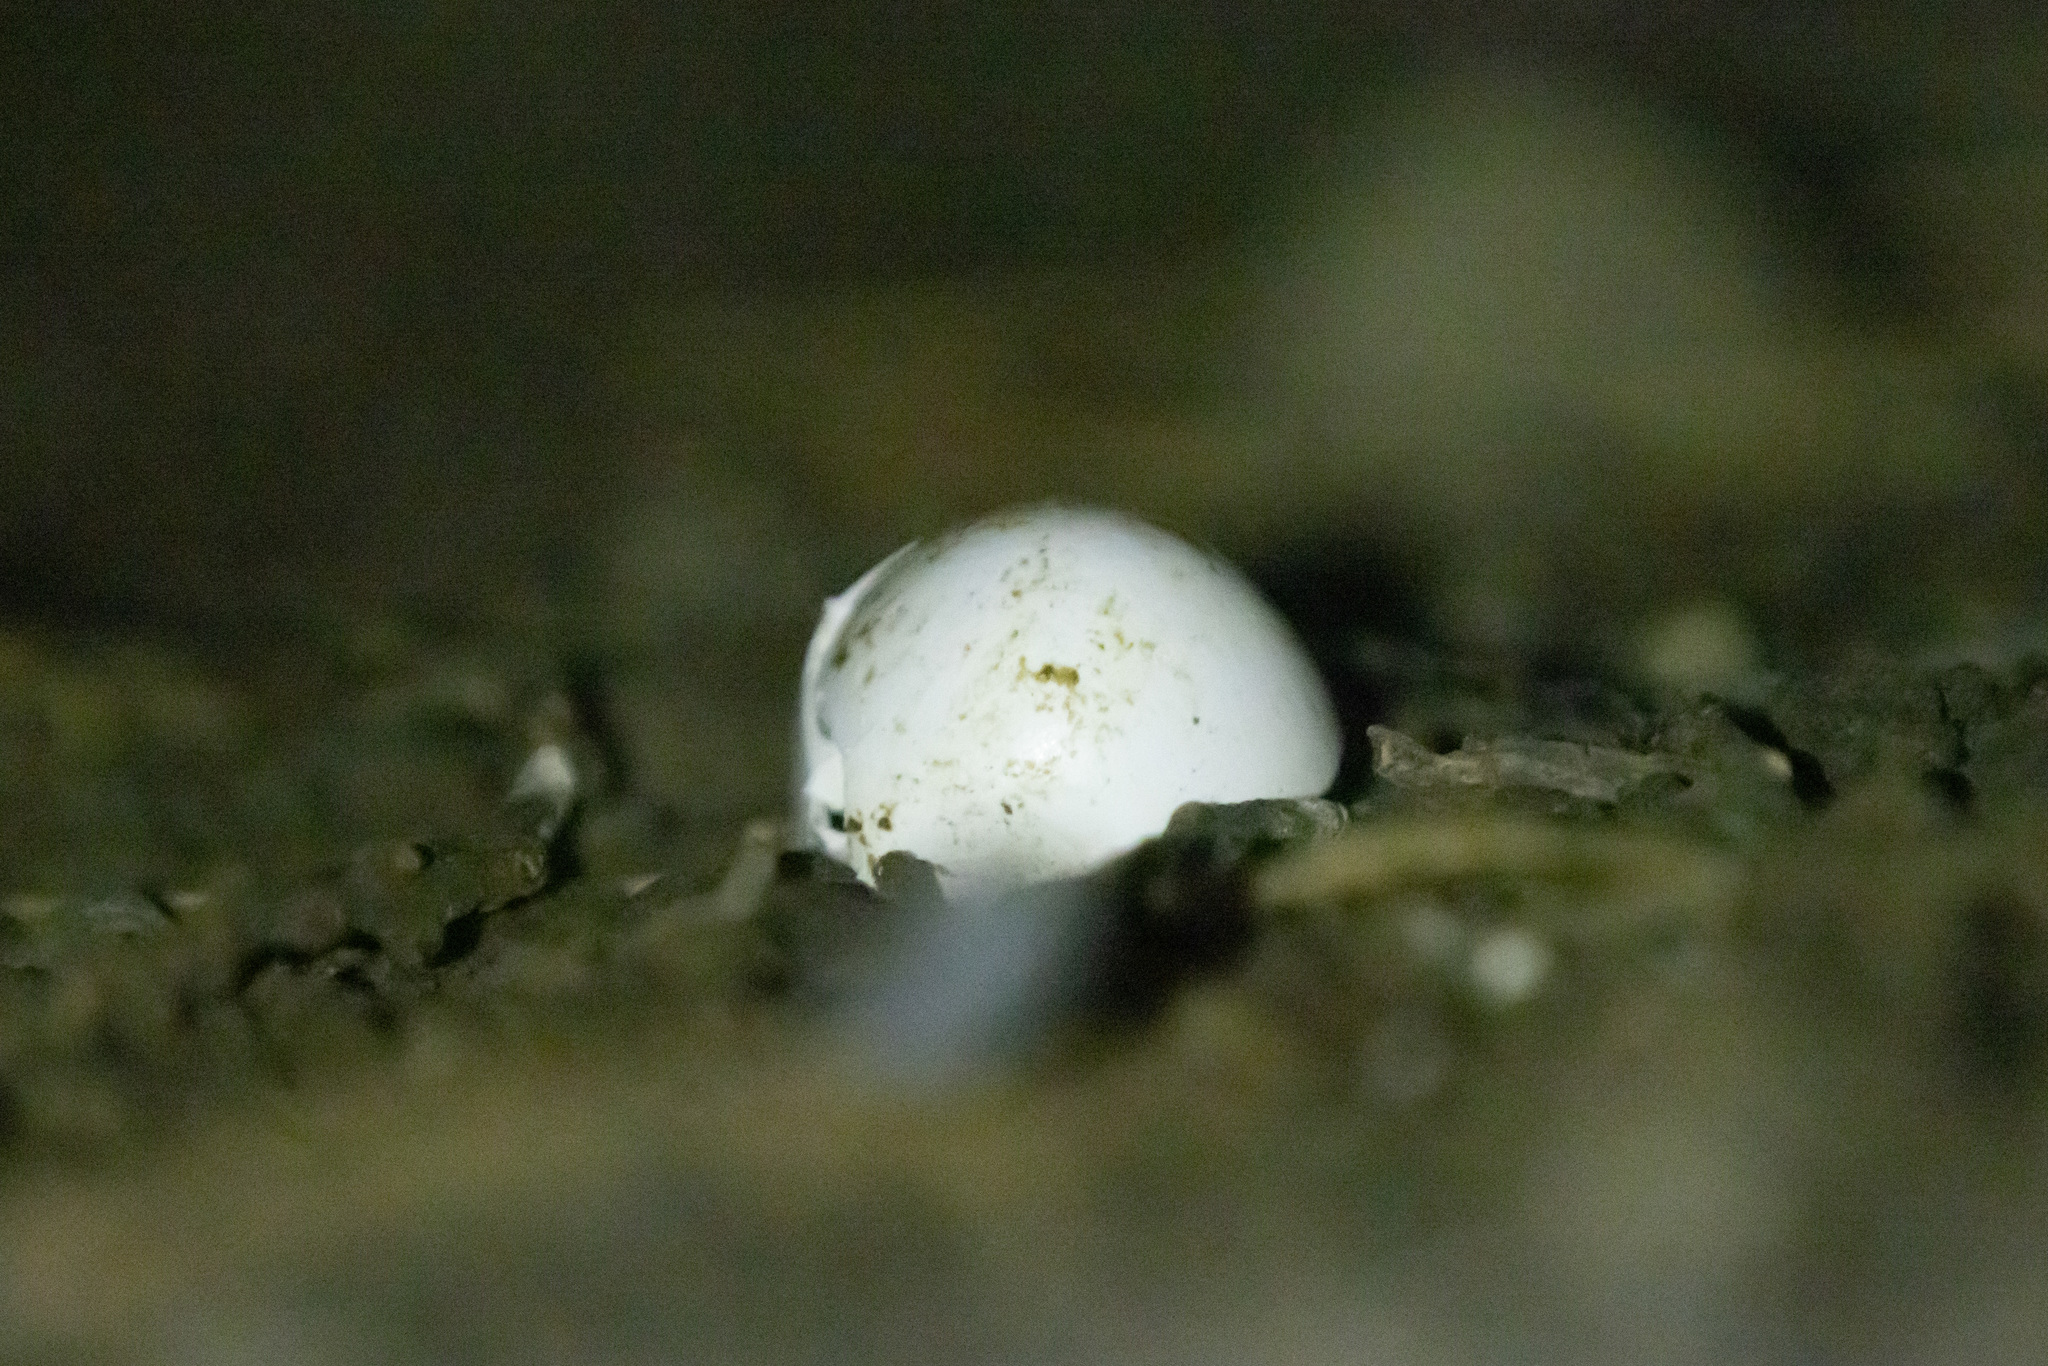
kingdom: Animalia
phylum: Chordata
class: Aves
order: Columbiformes
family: Columbidae
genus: Columba
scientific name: Columba livia
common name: Rock pigeon
